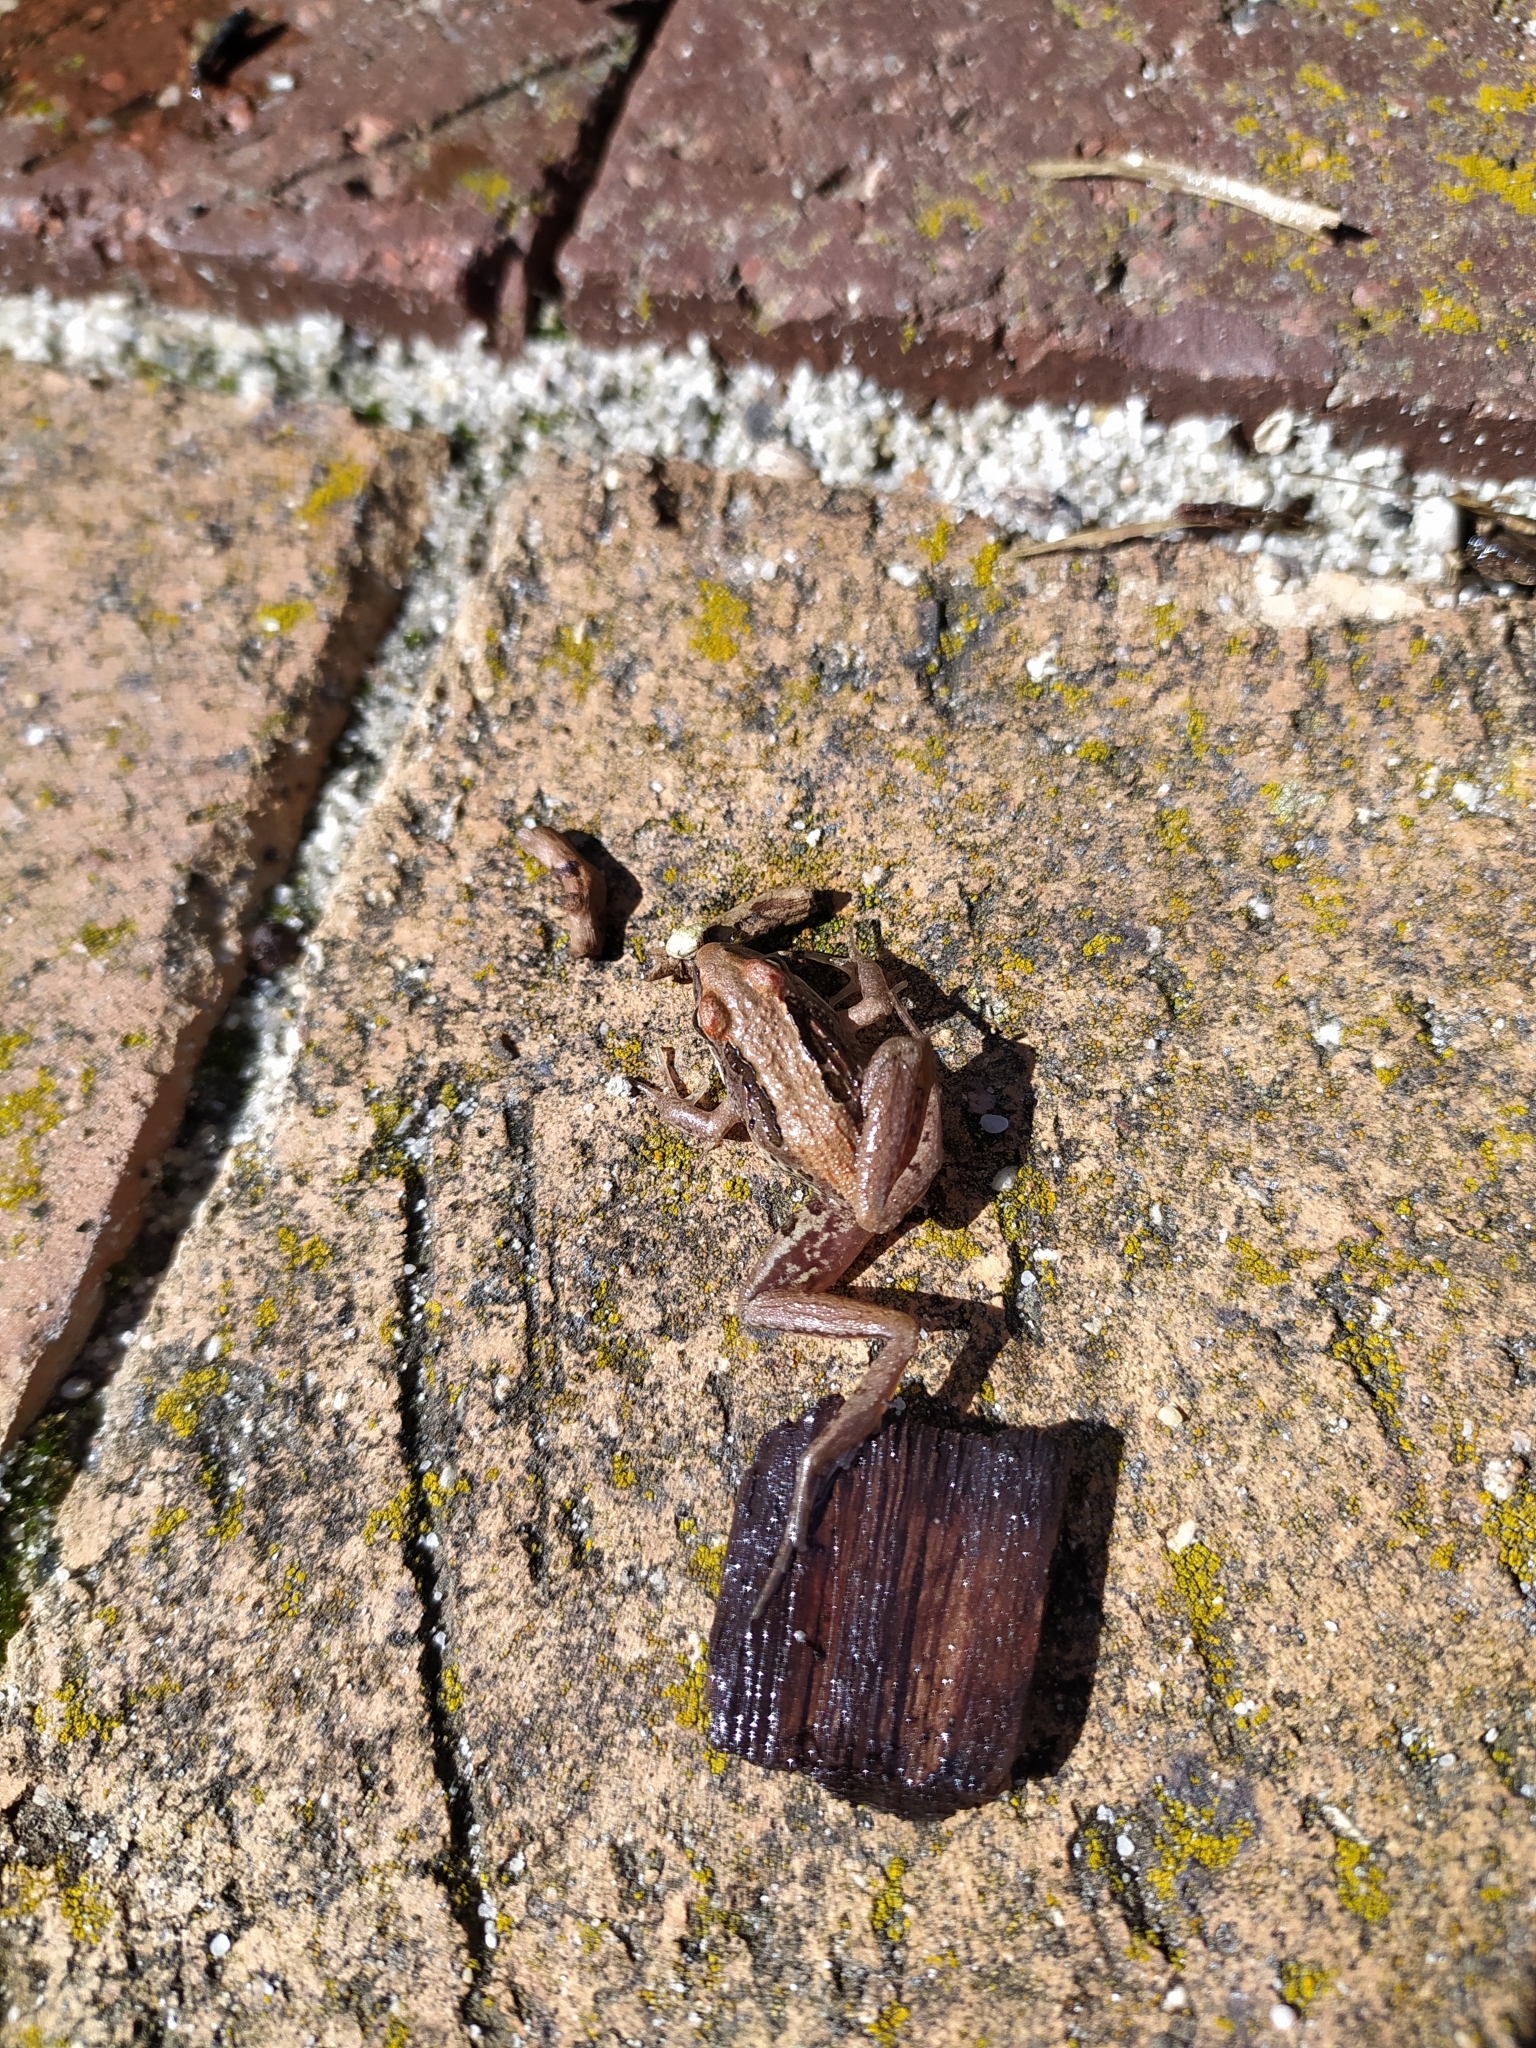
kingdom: Animalia
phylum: Chordata
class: Amphibia
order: Anura
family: Pyxicephalidae
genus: Strongylopus
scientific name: Strongylopus grayii
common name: Gray's stream frog
